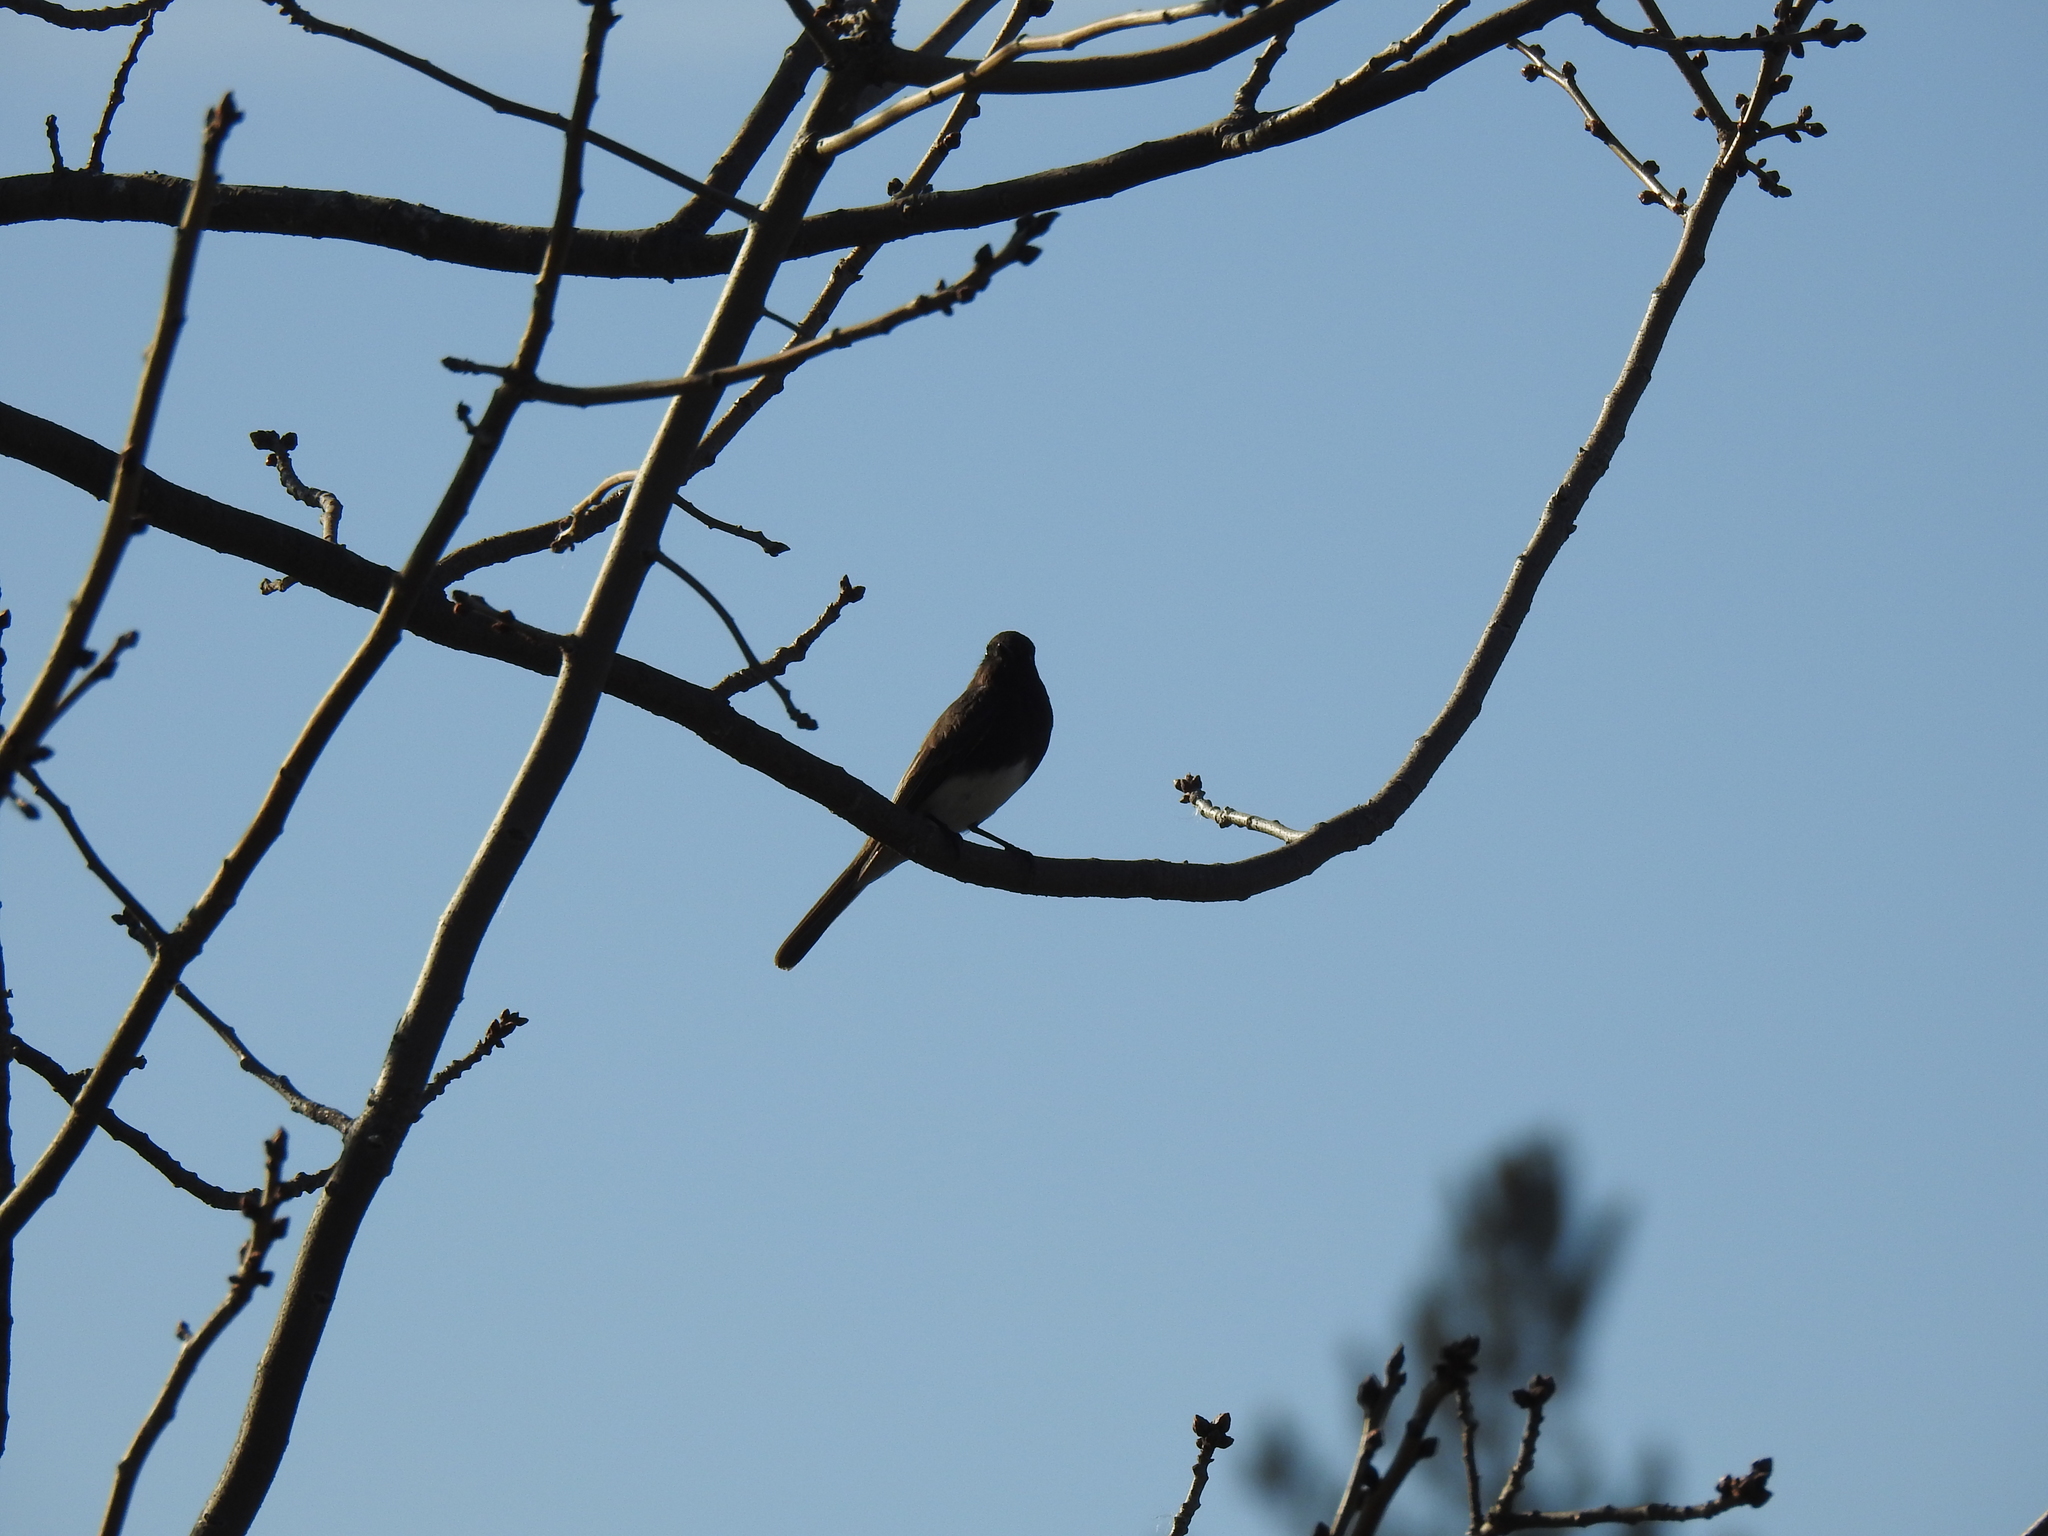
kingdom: Animalia
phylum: Chordata
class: Aves
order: Passeriformes
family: Tyrannidae
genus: Sayornis
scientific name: Sayornis nigricans
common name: Black phoebe
